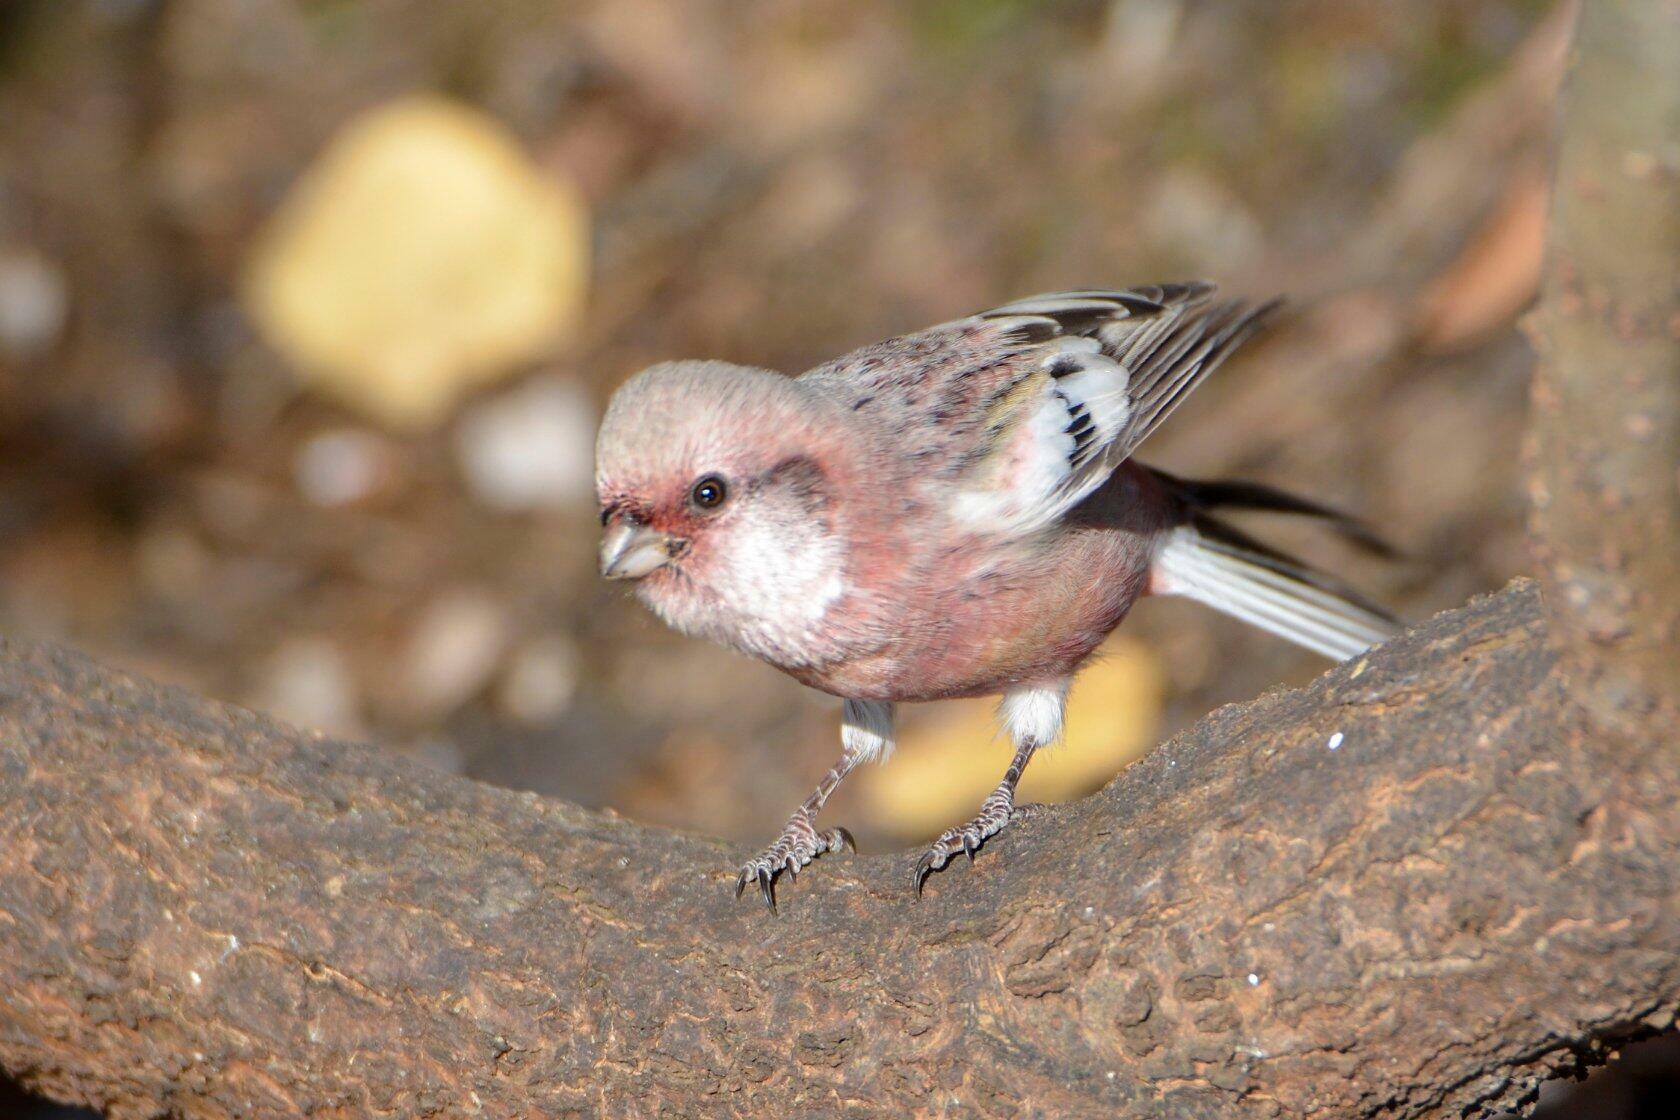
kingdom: Animalia
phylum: Chordata
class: Aves
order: Passeriformes
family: Fringillidae
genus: Carpodacus
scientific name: Carpodacus sibiricus
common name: Long-tailed rosefinch
